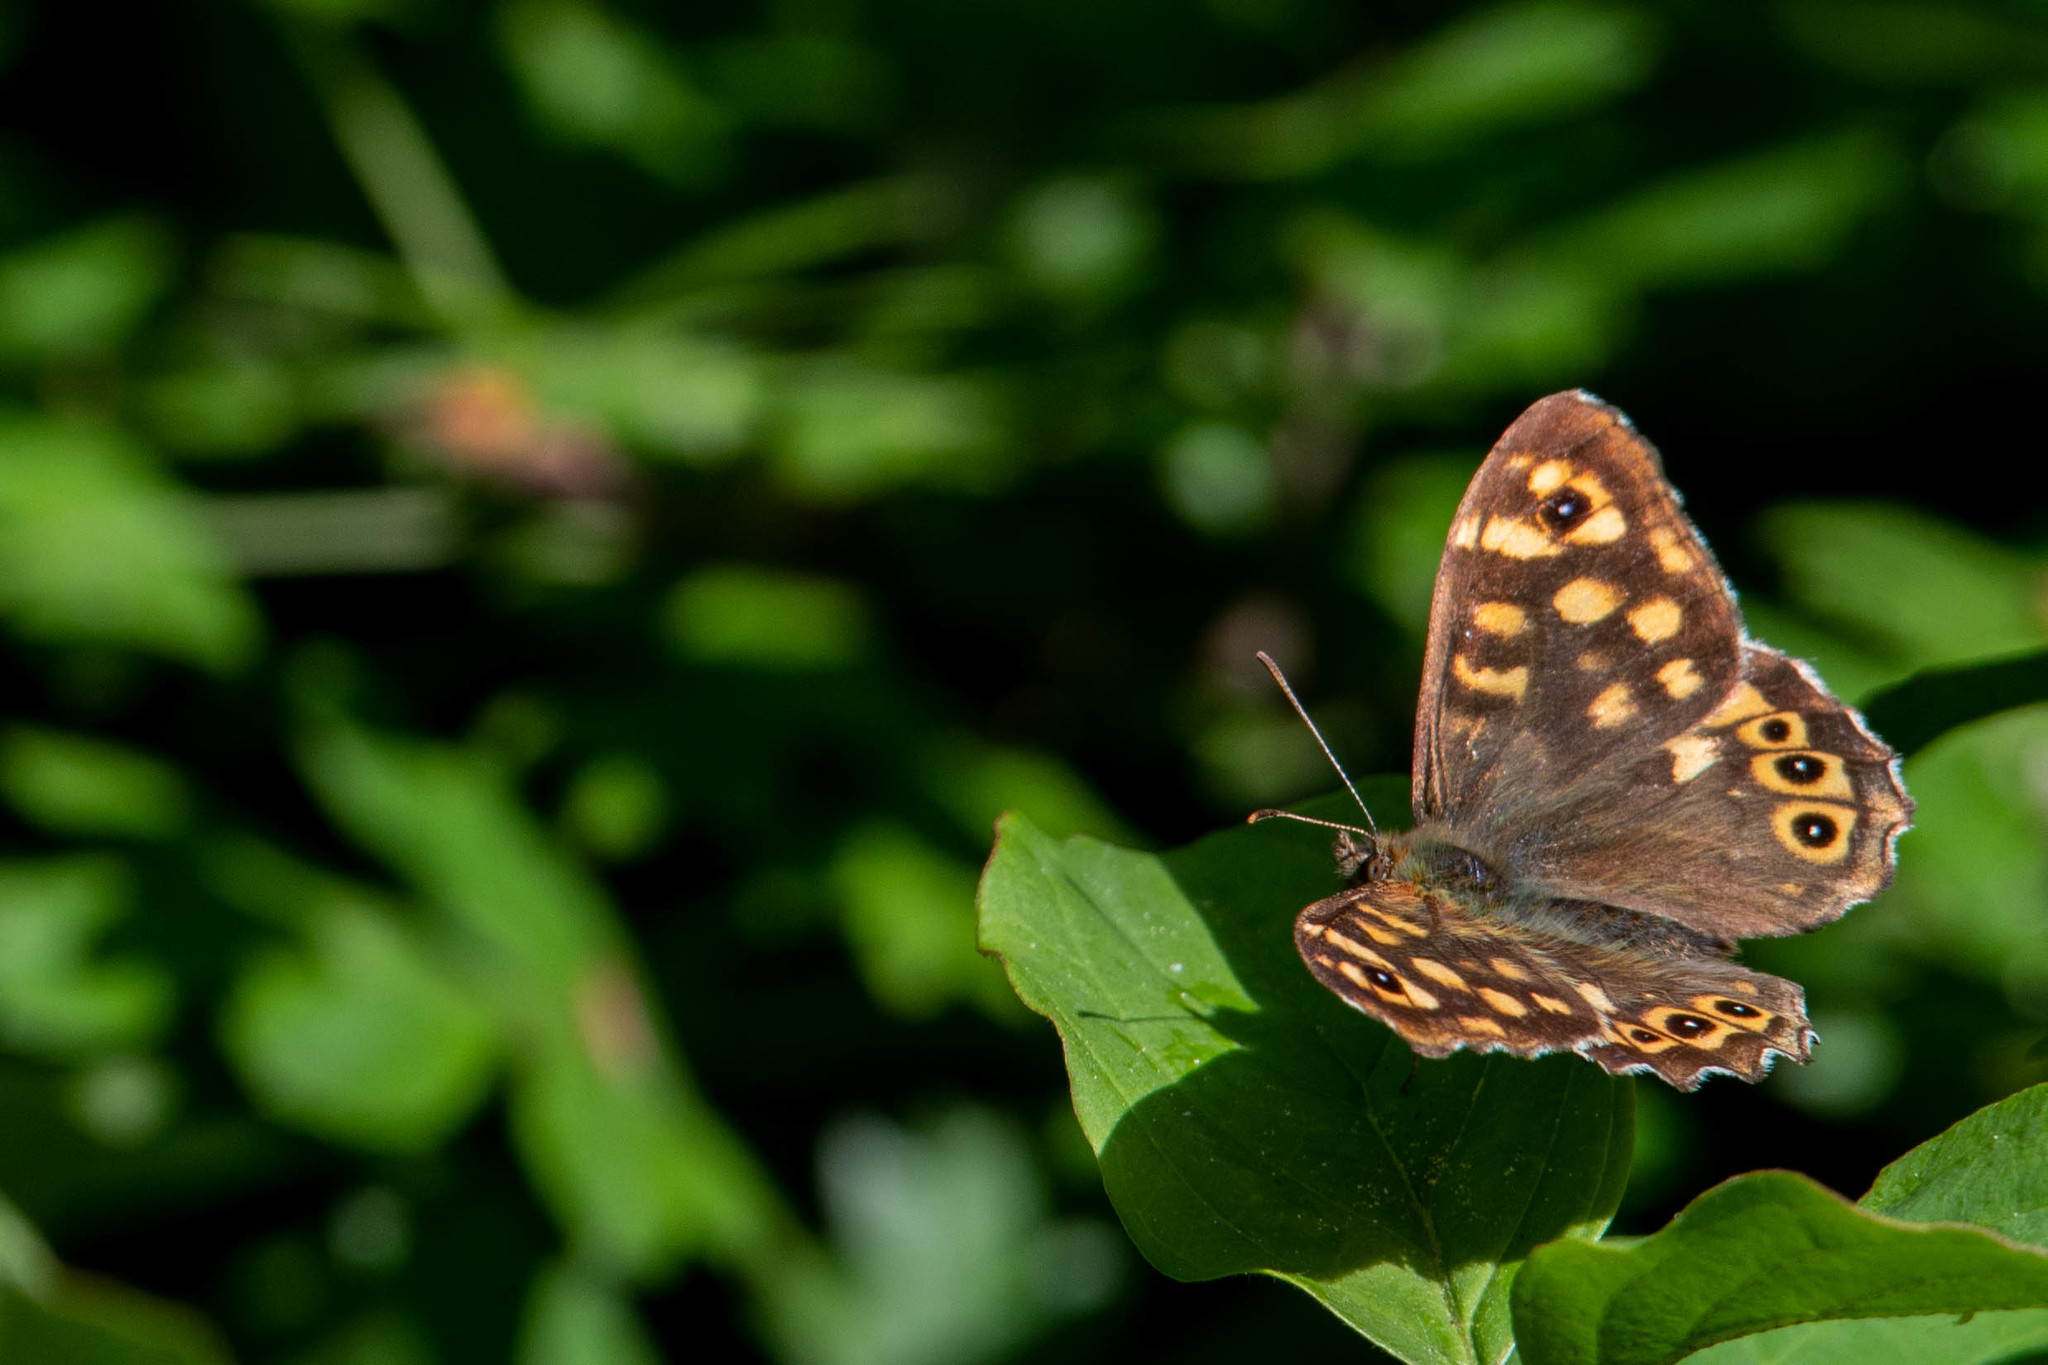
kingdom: Animalia
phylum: Arthropoda
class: Insecta
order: Lepidoptera
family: Nymphalidae
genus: Pararge
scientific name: Pararge aegeria
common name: Speckled wood
